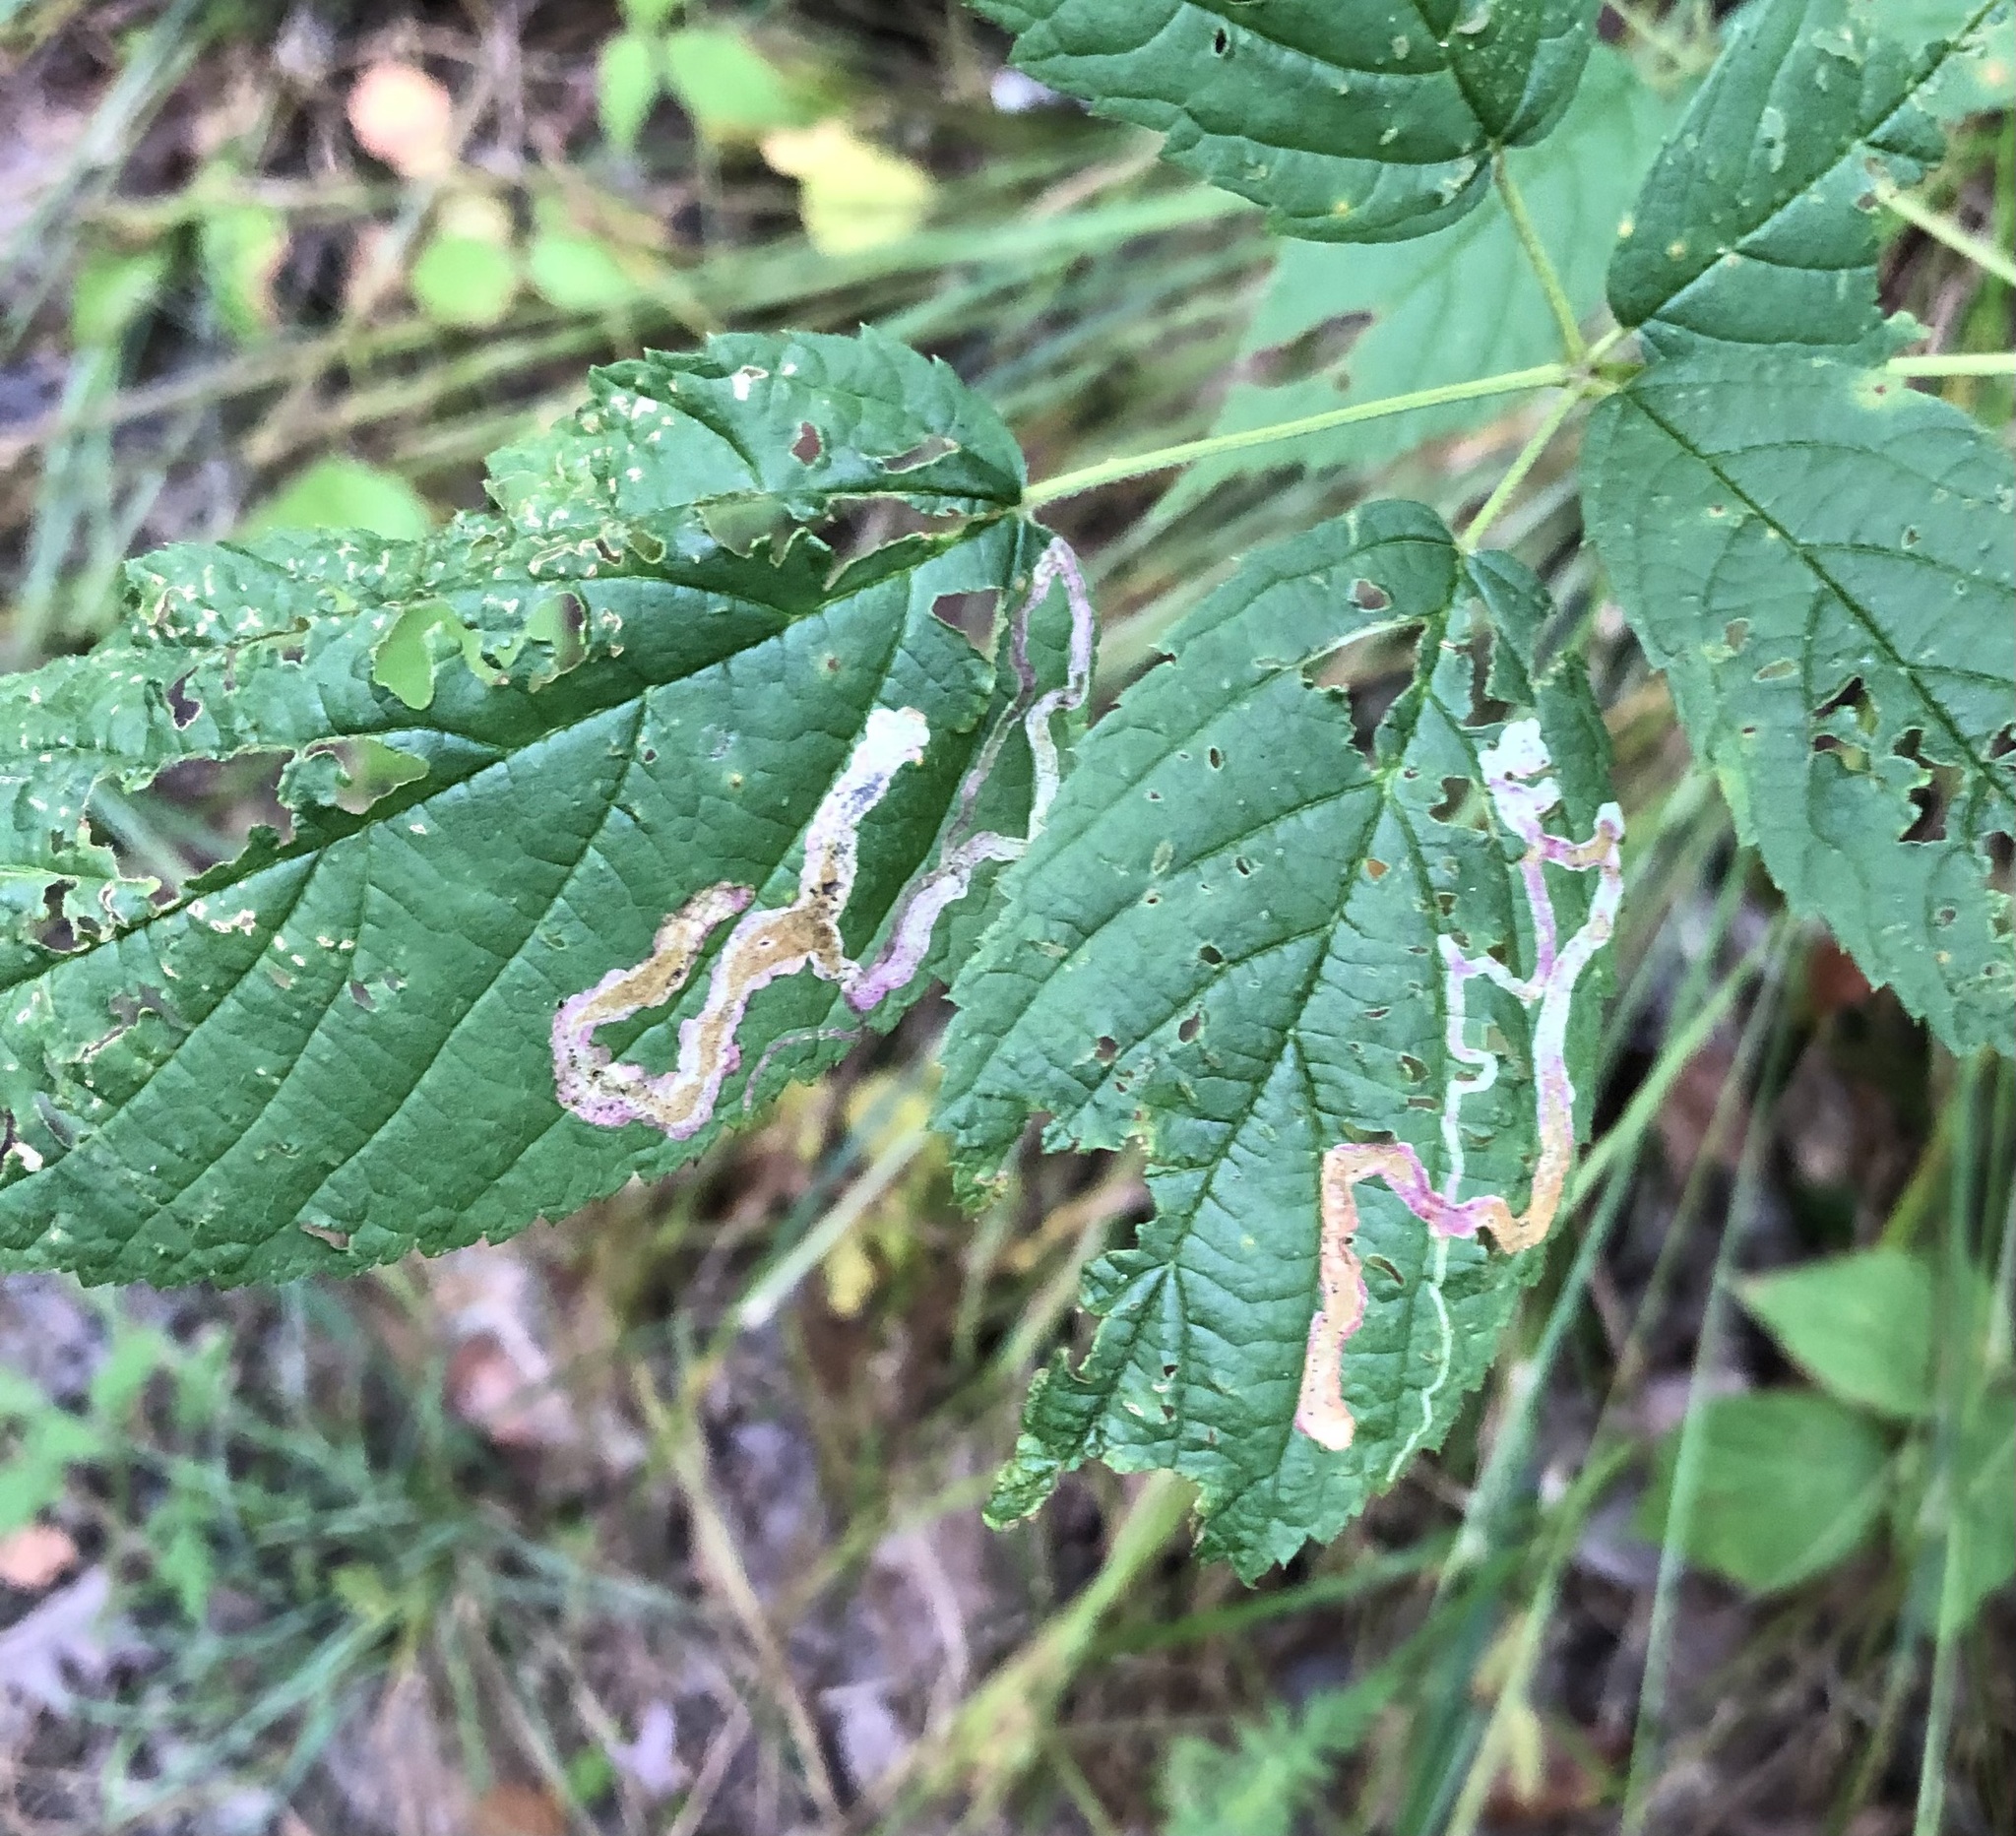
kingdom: Animalia
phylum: Arthropoda
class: Insecta
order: Diptera
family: Agromyzidae
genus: Agromyza
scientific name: Agromyza vockerothi
